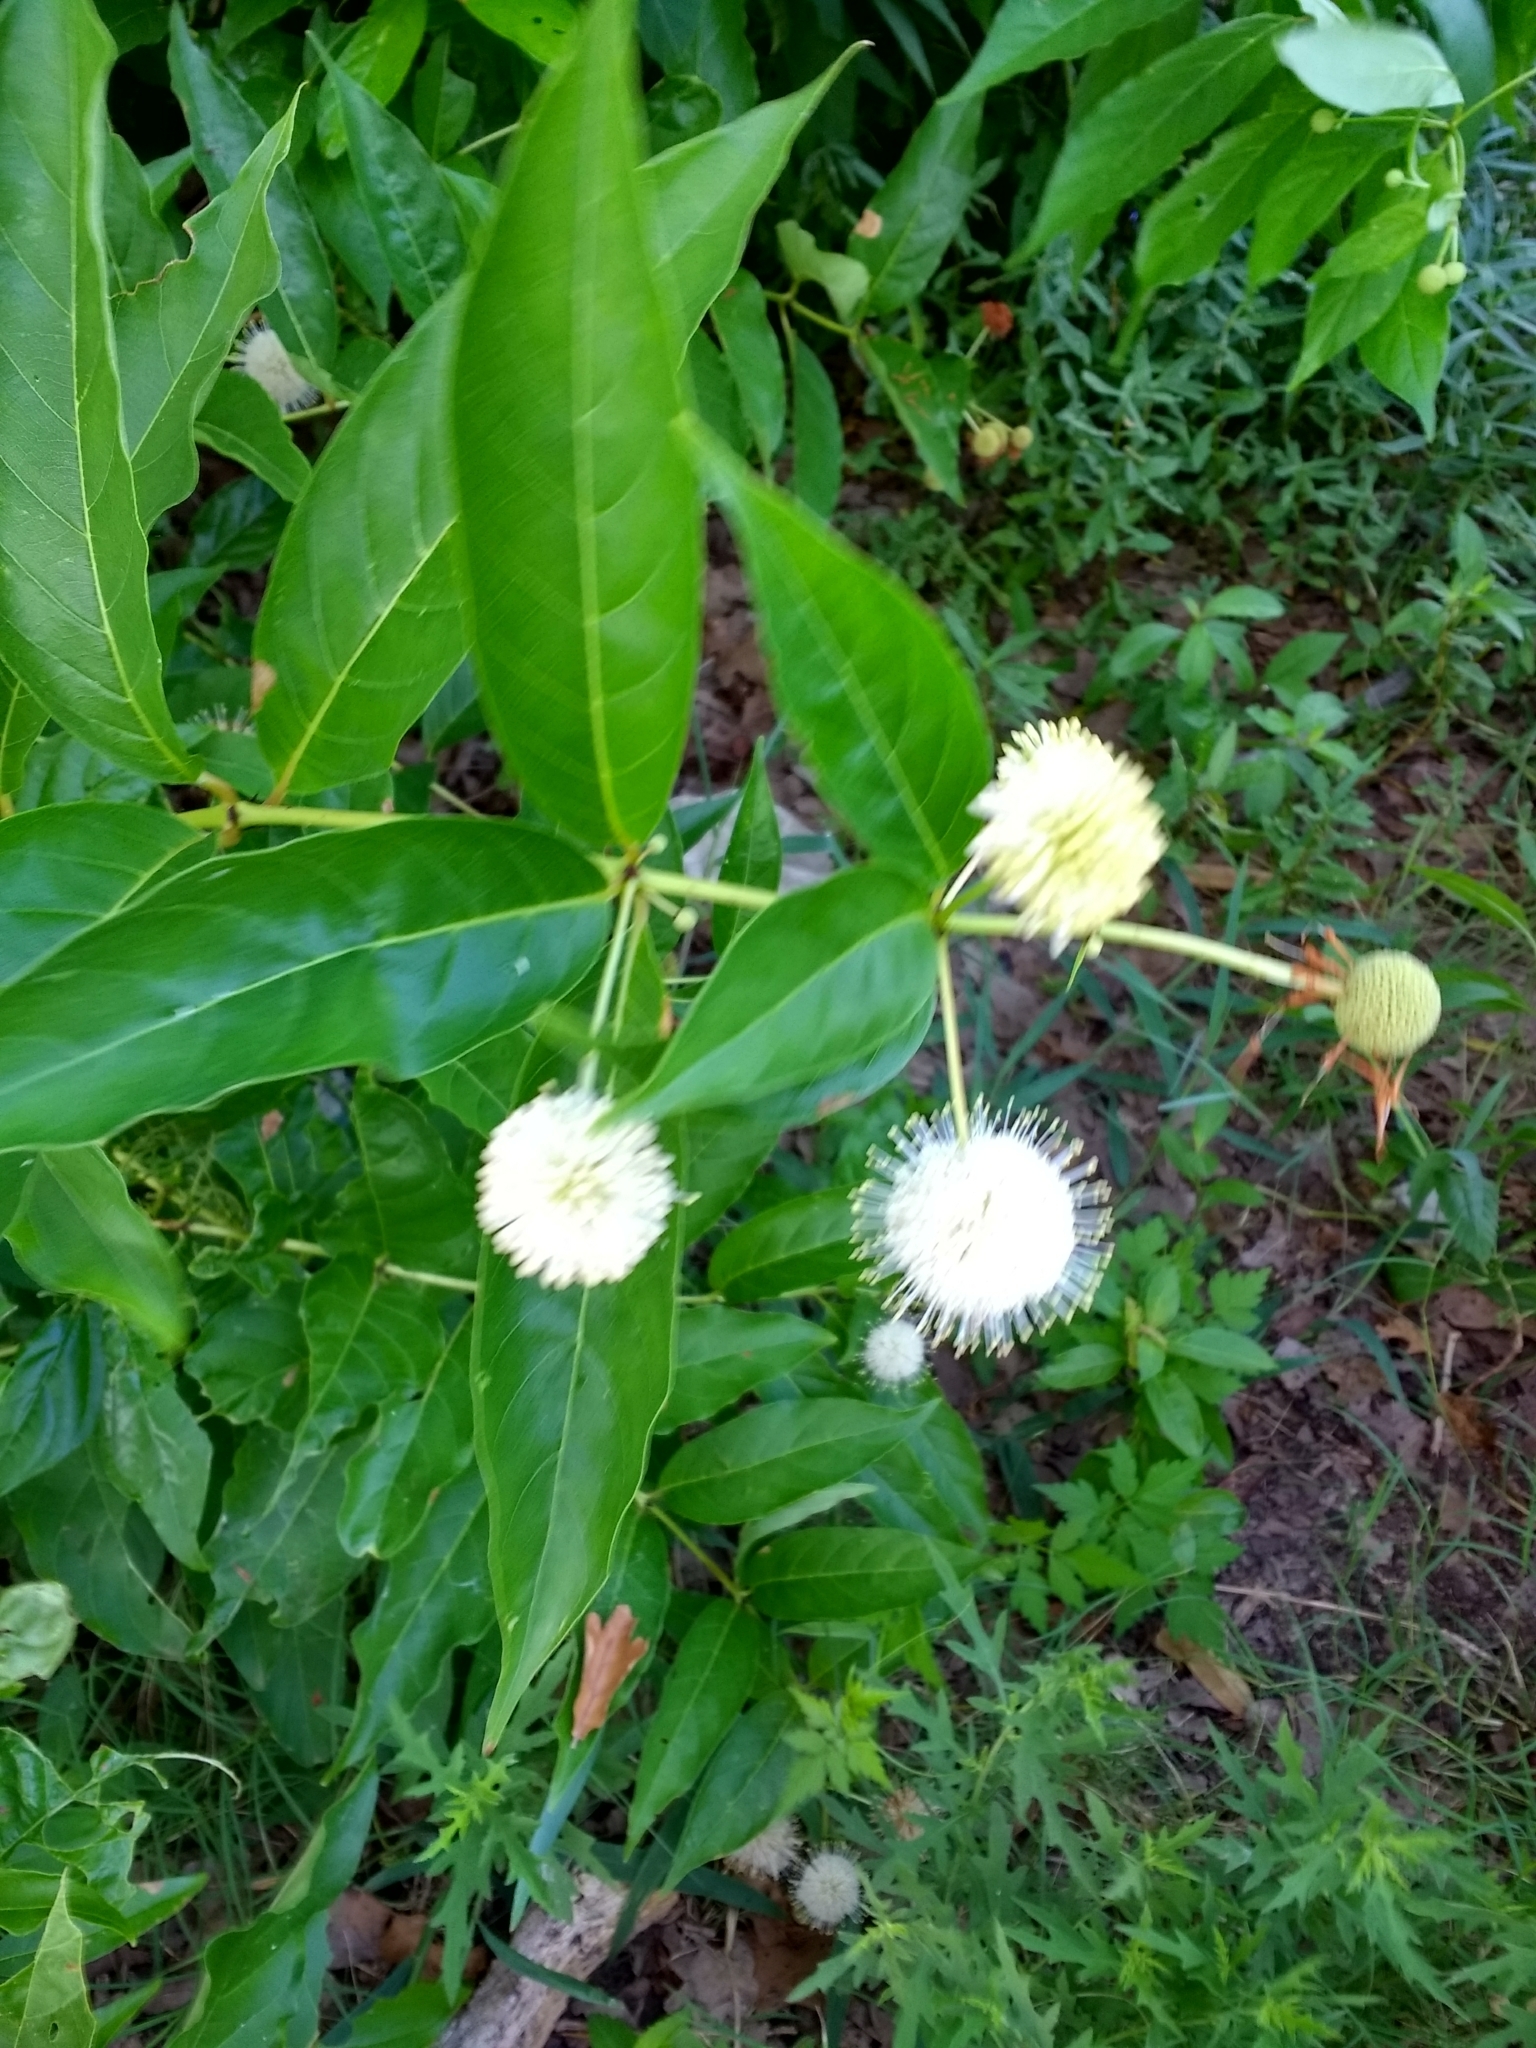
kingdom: Plantae
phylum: Tracheophyta
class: Magnoliopsida
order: Gentianales
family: Rubiaceae
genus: Cephalanthus
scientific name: Cephalanthus occidentalis
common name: Button-willow
